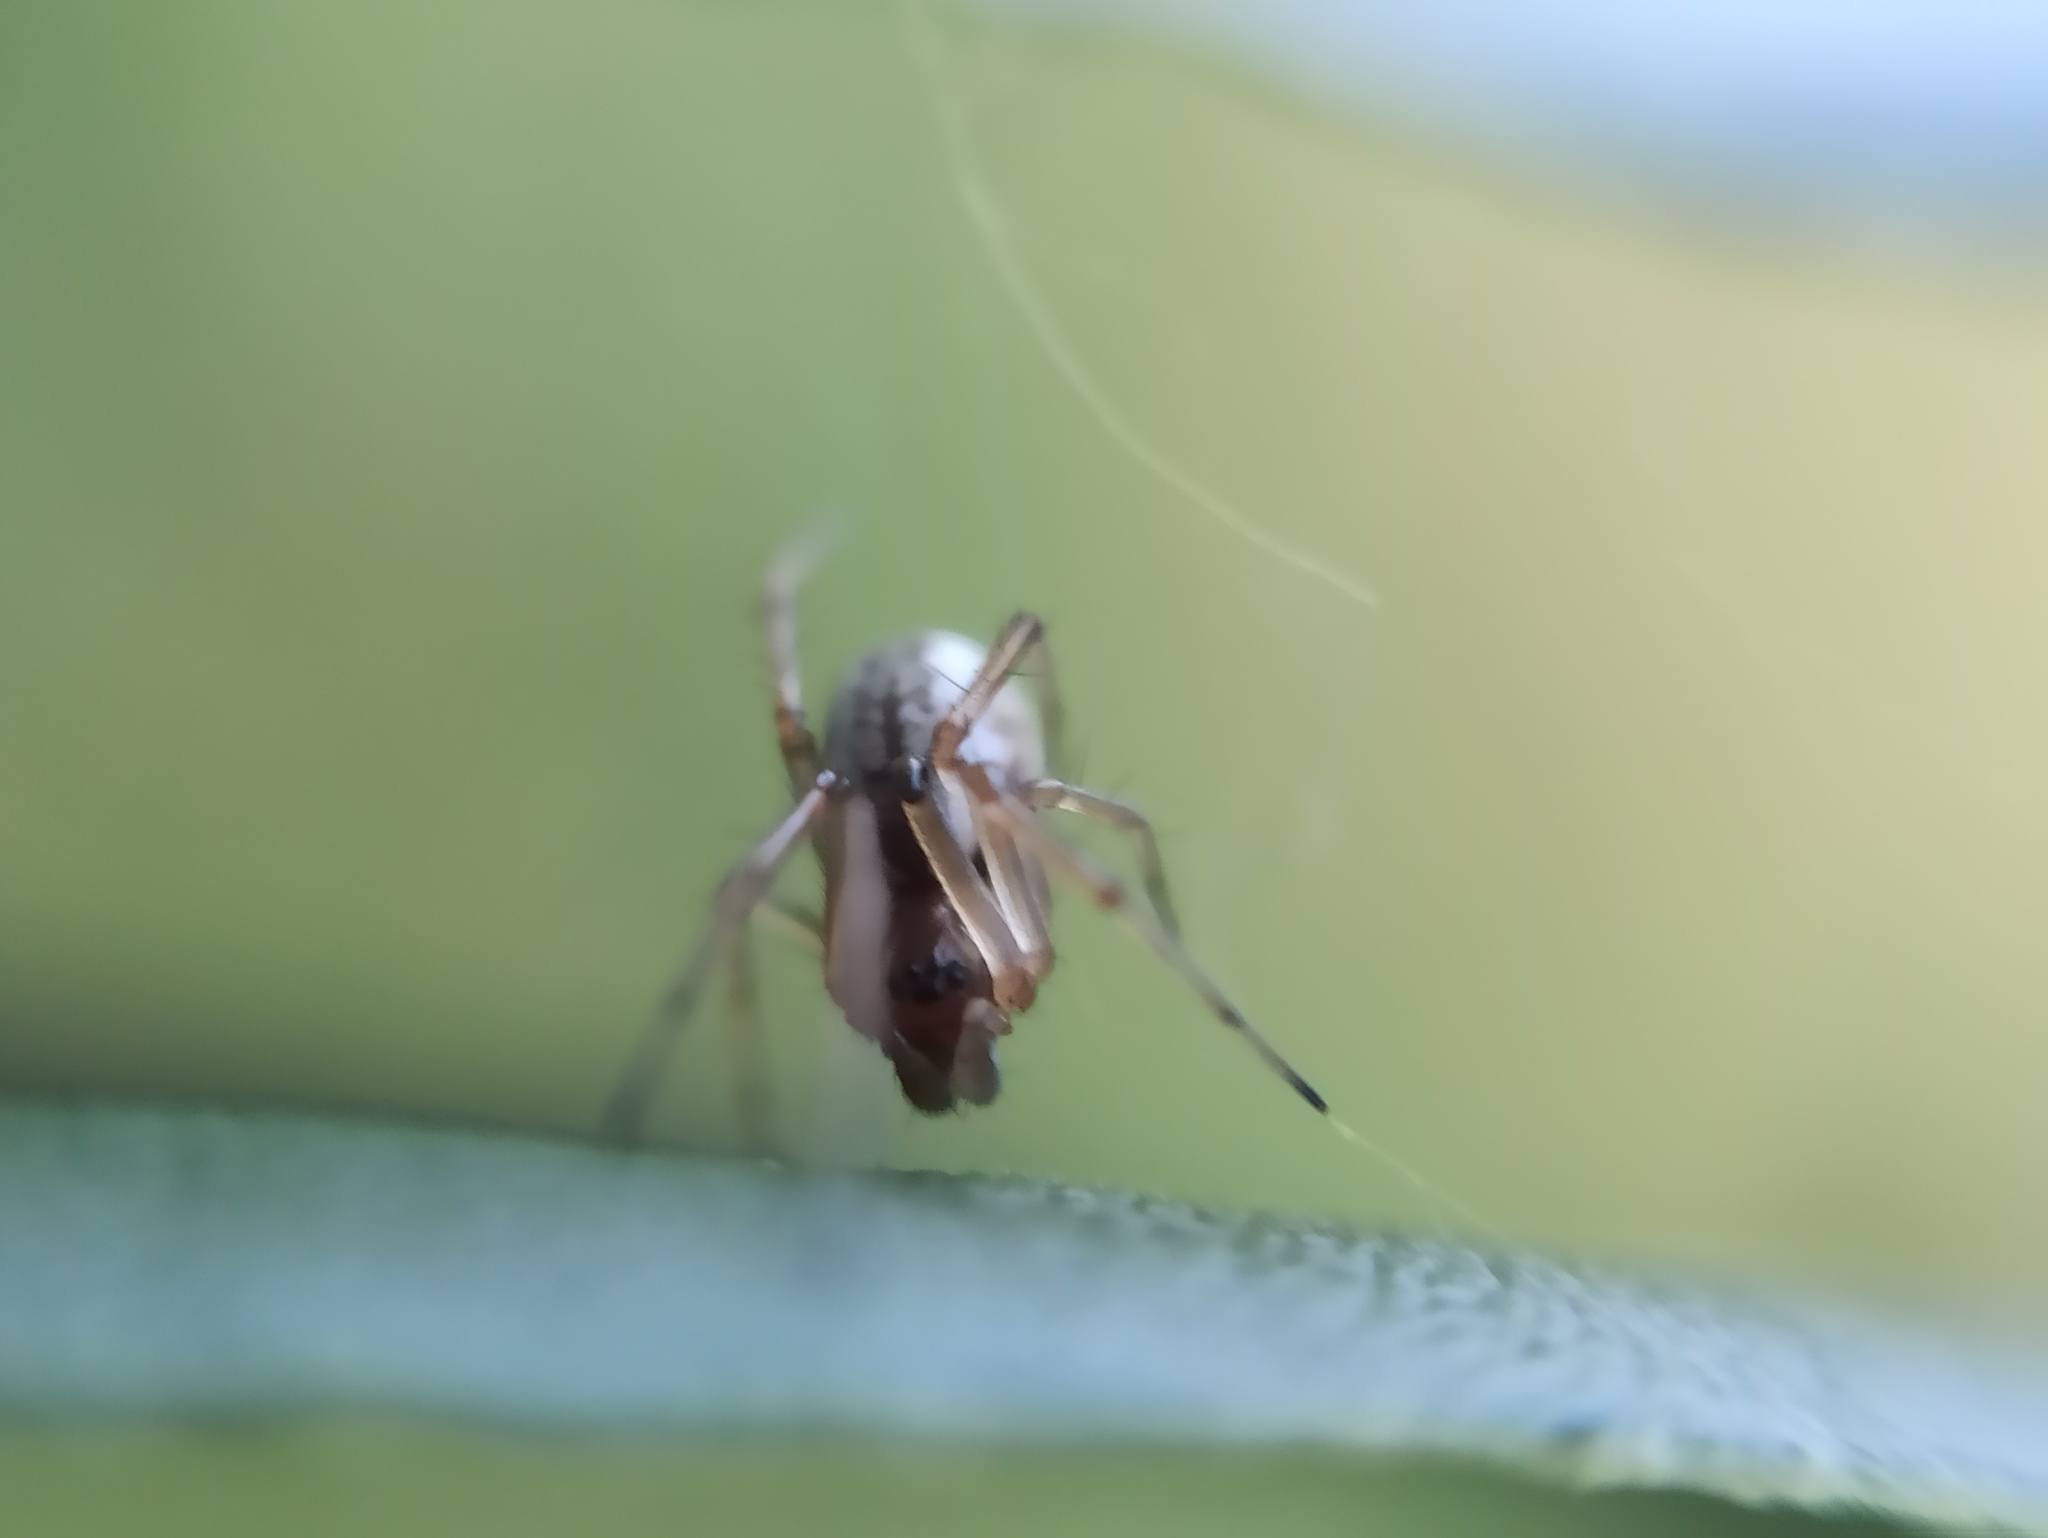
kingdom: Animalia
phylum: Arthropoda
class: Arachnida
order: Araneae
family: Linyphiidae
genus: Frontinellina
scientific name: Frontinellina frutetorum
